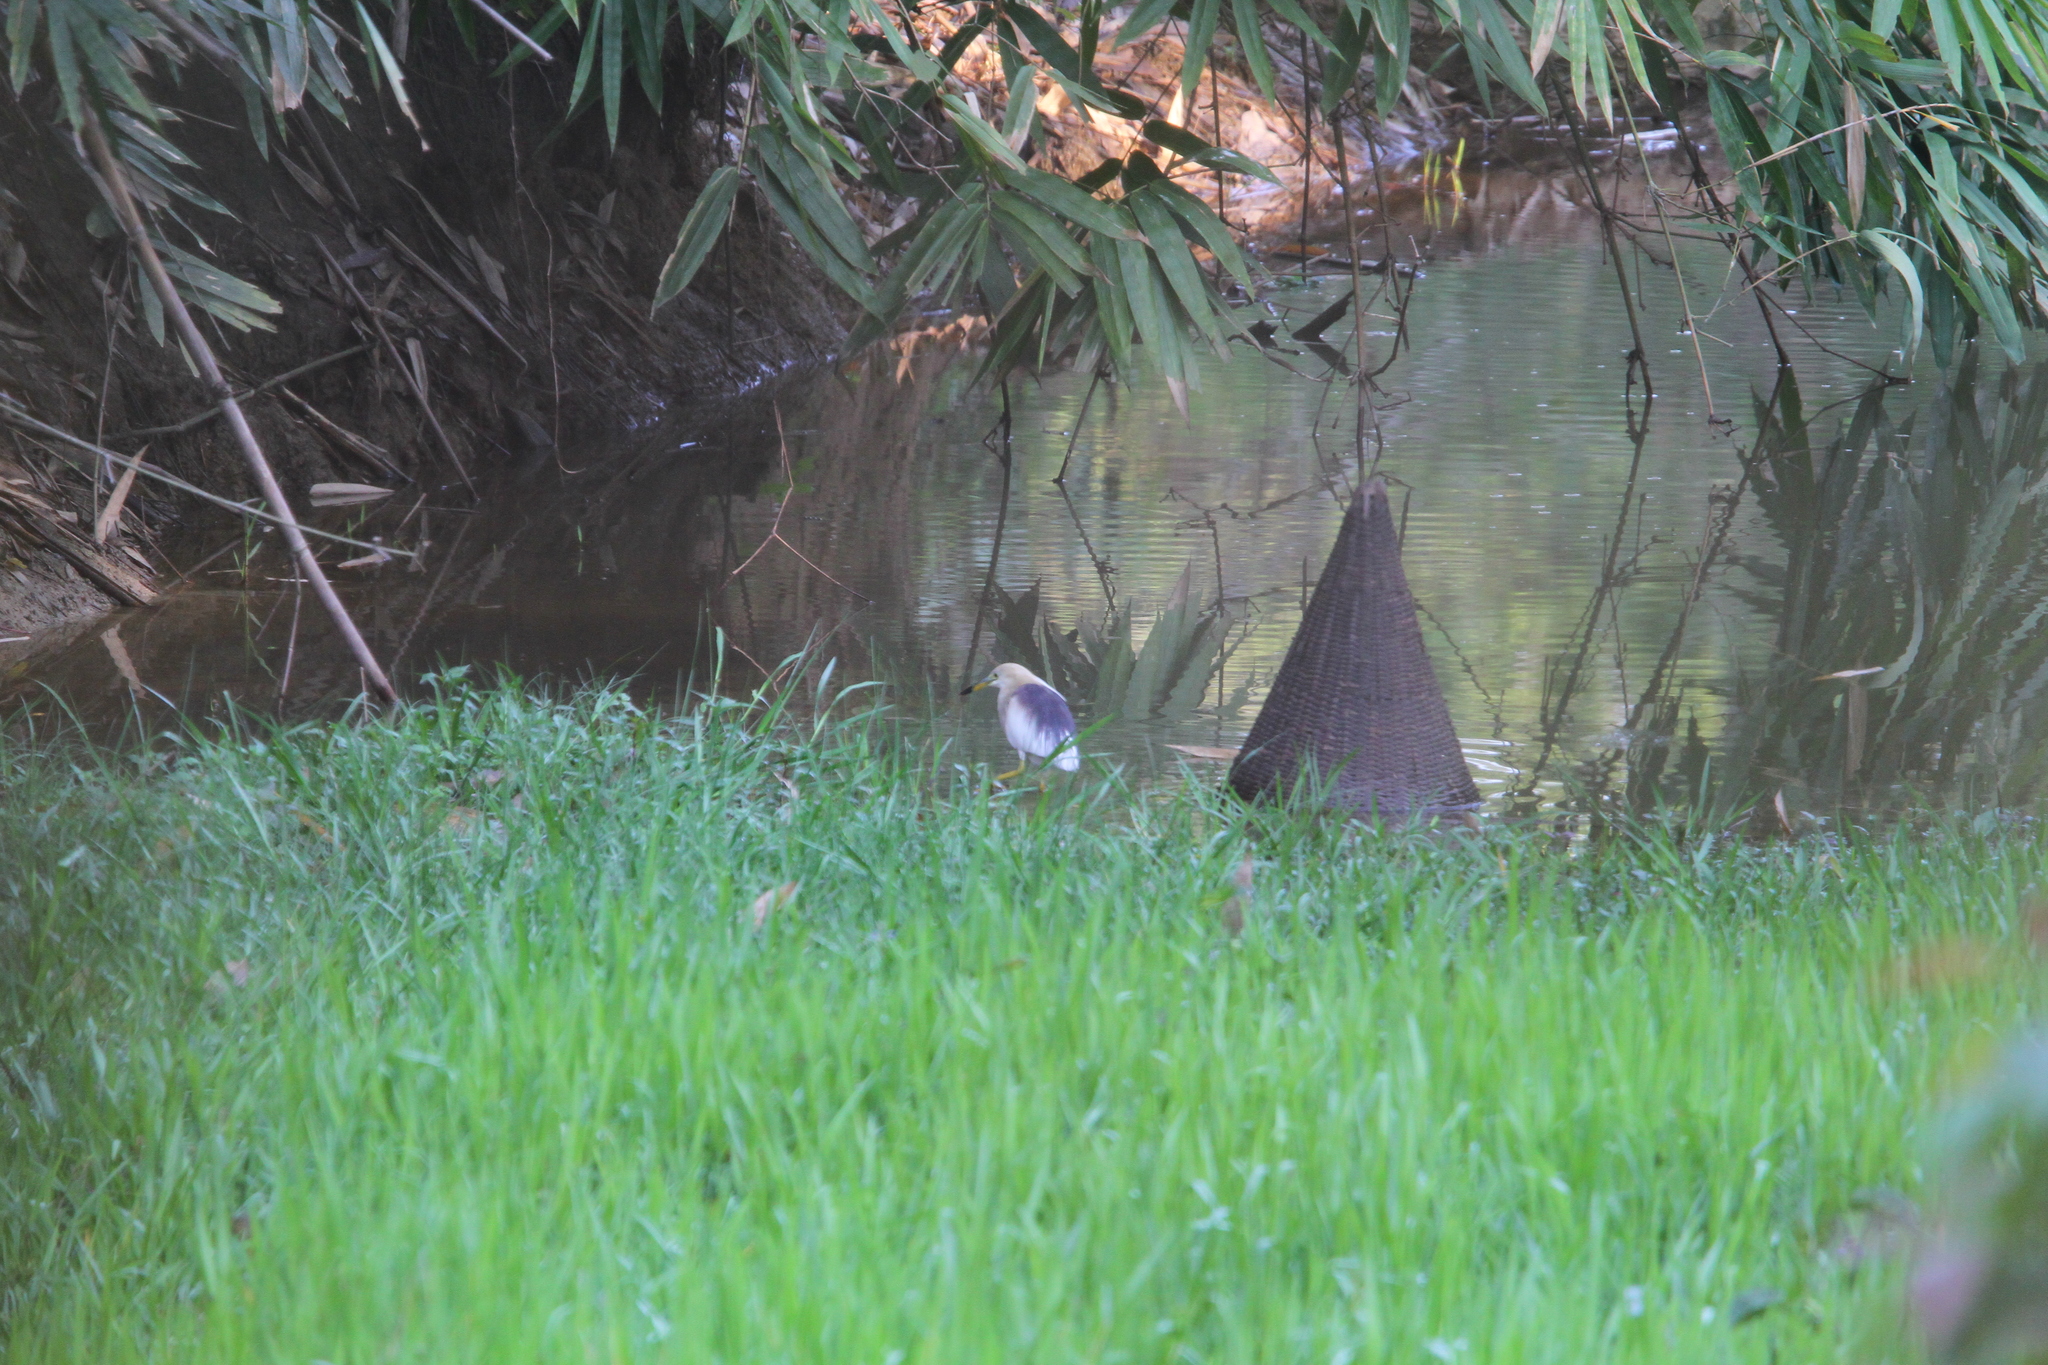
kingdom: Animalia
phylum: Chordata
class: Aves
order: Pelecaniformes
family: Ardeidae
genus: Ardeola
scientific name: Ardeola grayii
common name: Indian pond heron
